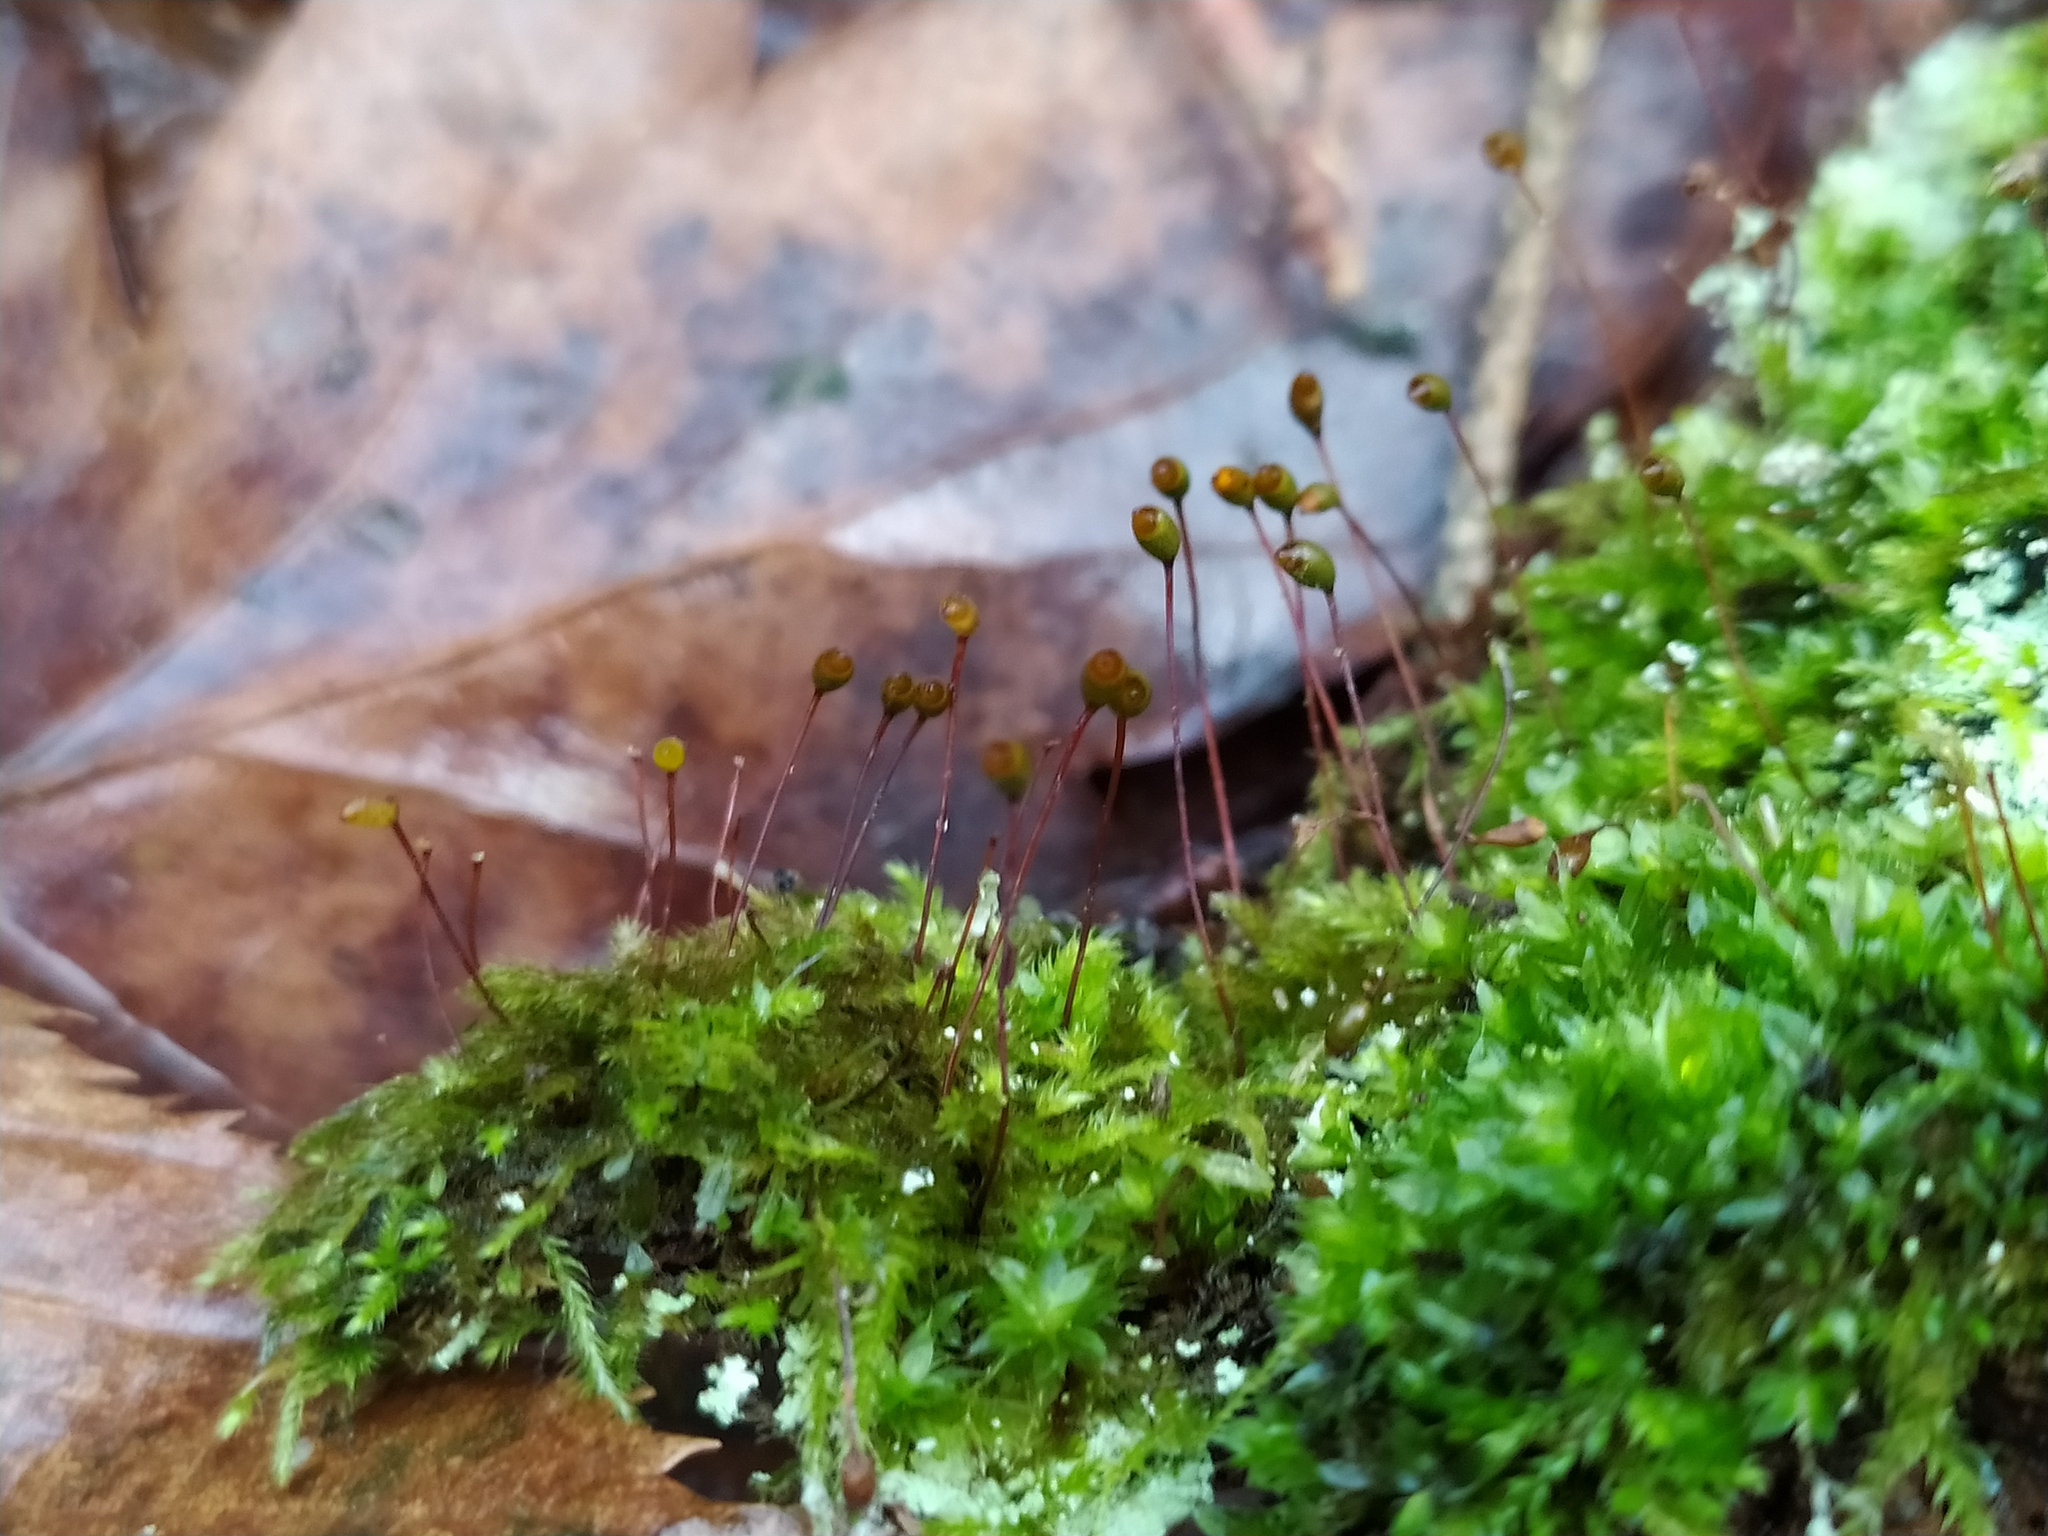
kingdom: Plantae
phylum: Bryophyta
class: Bryopsida
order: Hypnales
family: Brachytheciaceae
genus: Brachytheciastrum
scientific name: Brachytheciastrum velutinum
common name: Velvet feather-moss
